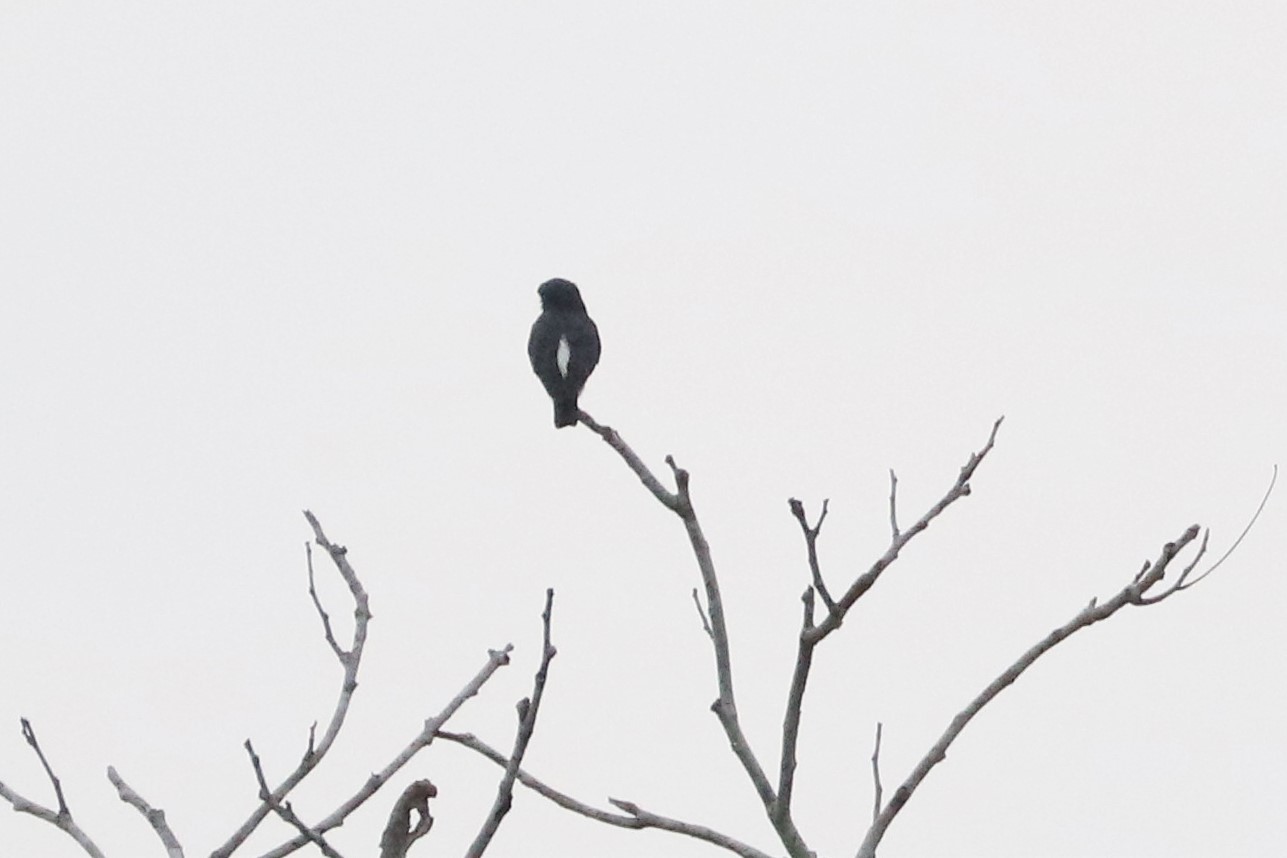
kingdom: Animalia
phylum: Chordata
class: Aves
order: Piciformes
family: Bucconidae
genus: Chelidoptera
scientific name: Chelidoptera tenebrosa
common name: Swallow-winged puffbird
